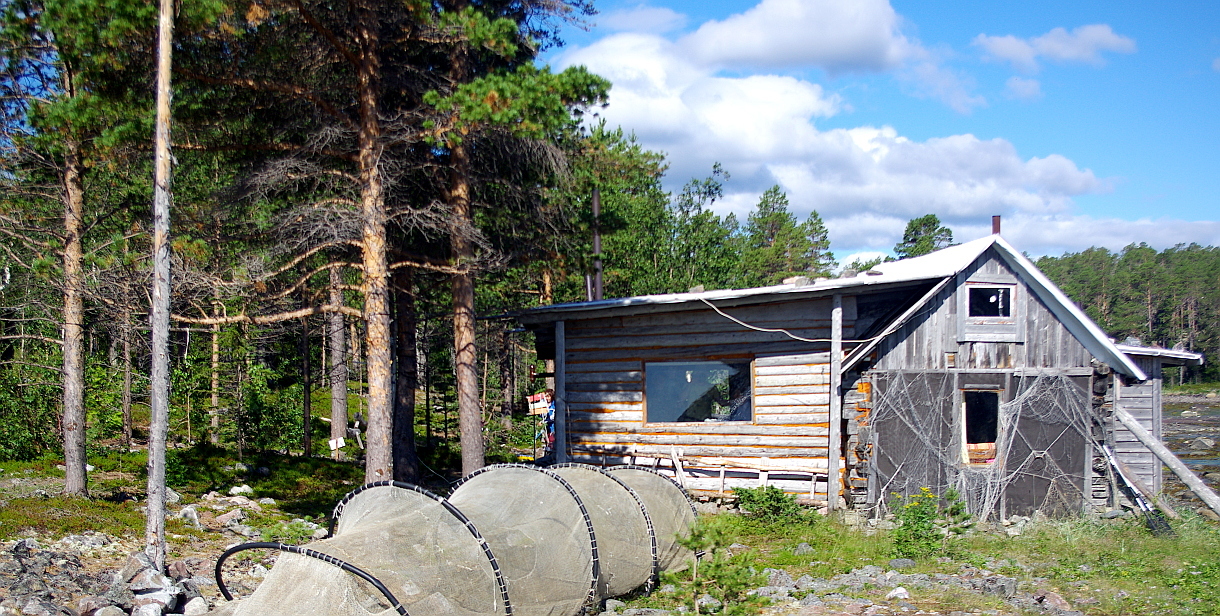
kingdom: Plantae
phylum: Tracheophyta
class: Pinopsida
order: Pinales
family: Pinaceae
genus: Pinus
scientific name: Pinus sylvestris
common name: Scots pine
